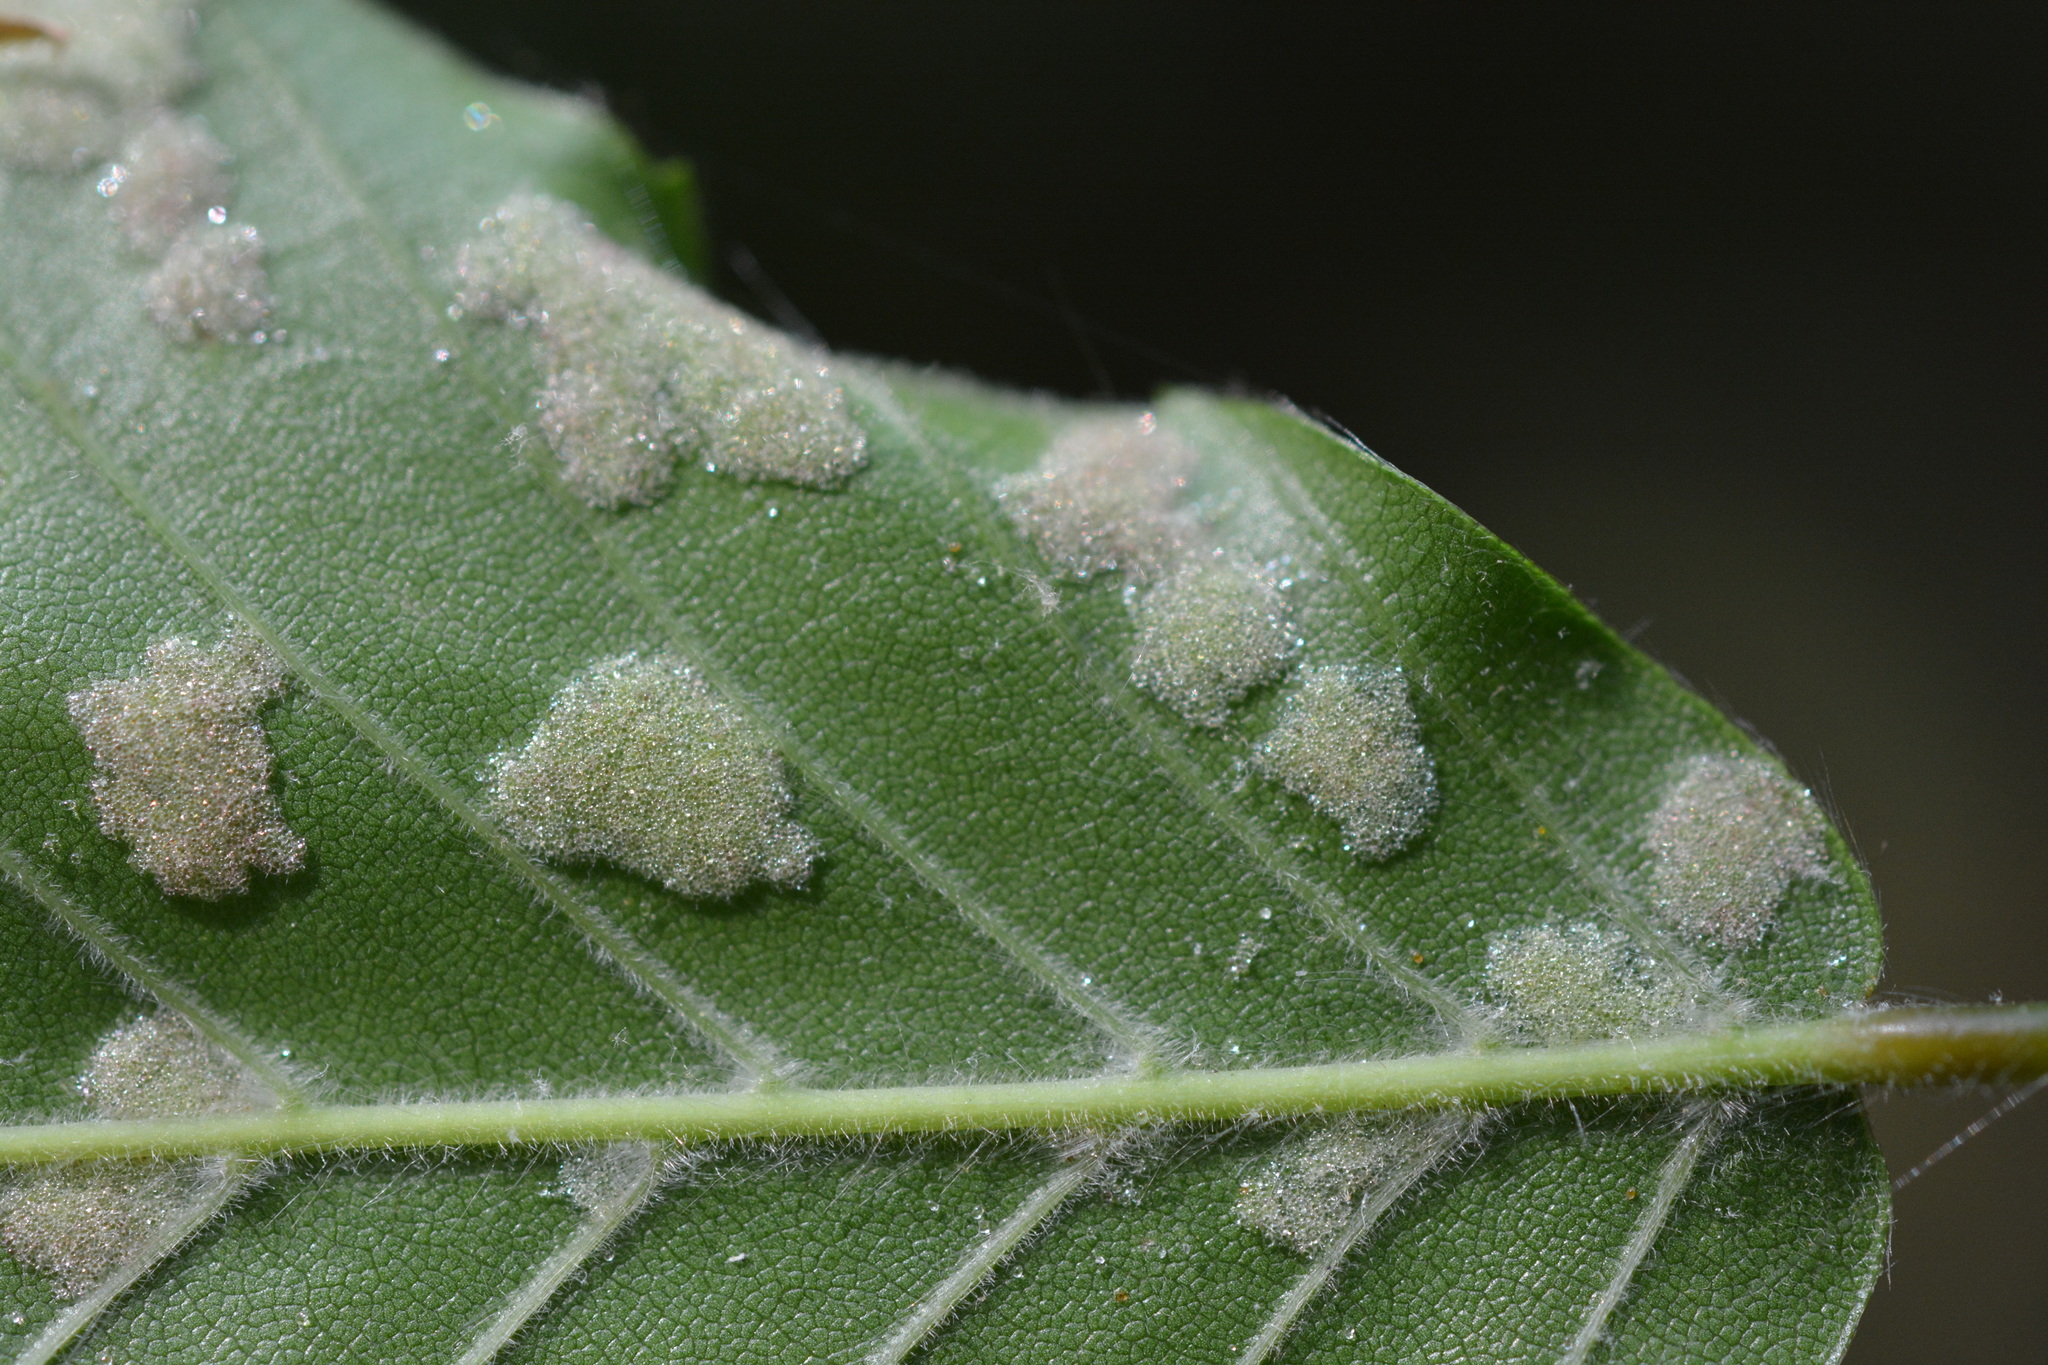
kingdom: Animalia
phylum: Arthropoda
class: Arachnida
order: Trombidiformes
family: Eriophyidae
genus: Acalitus
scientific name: Acalitus
